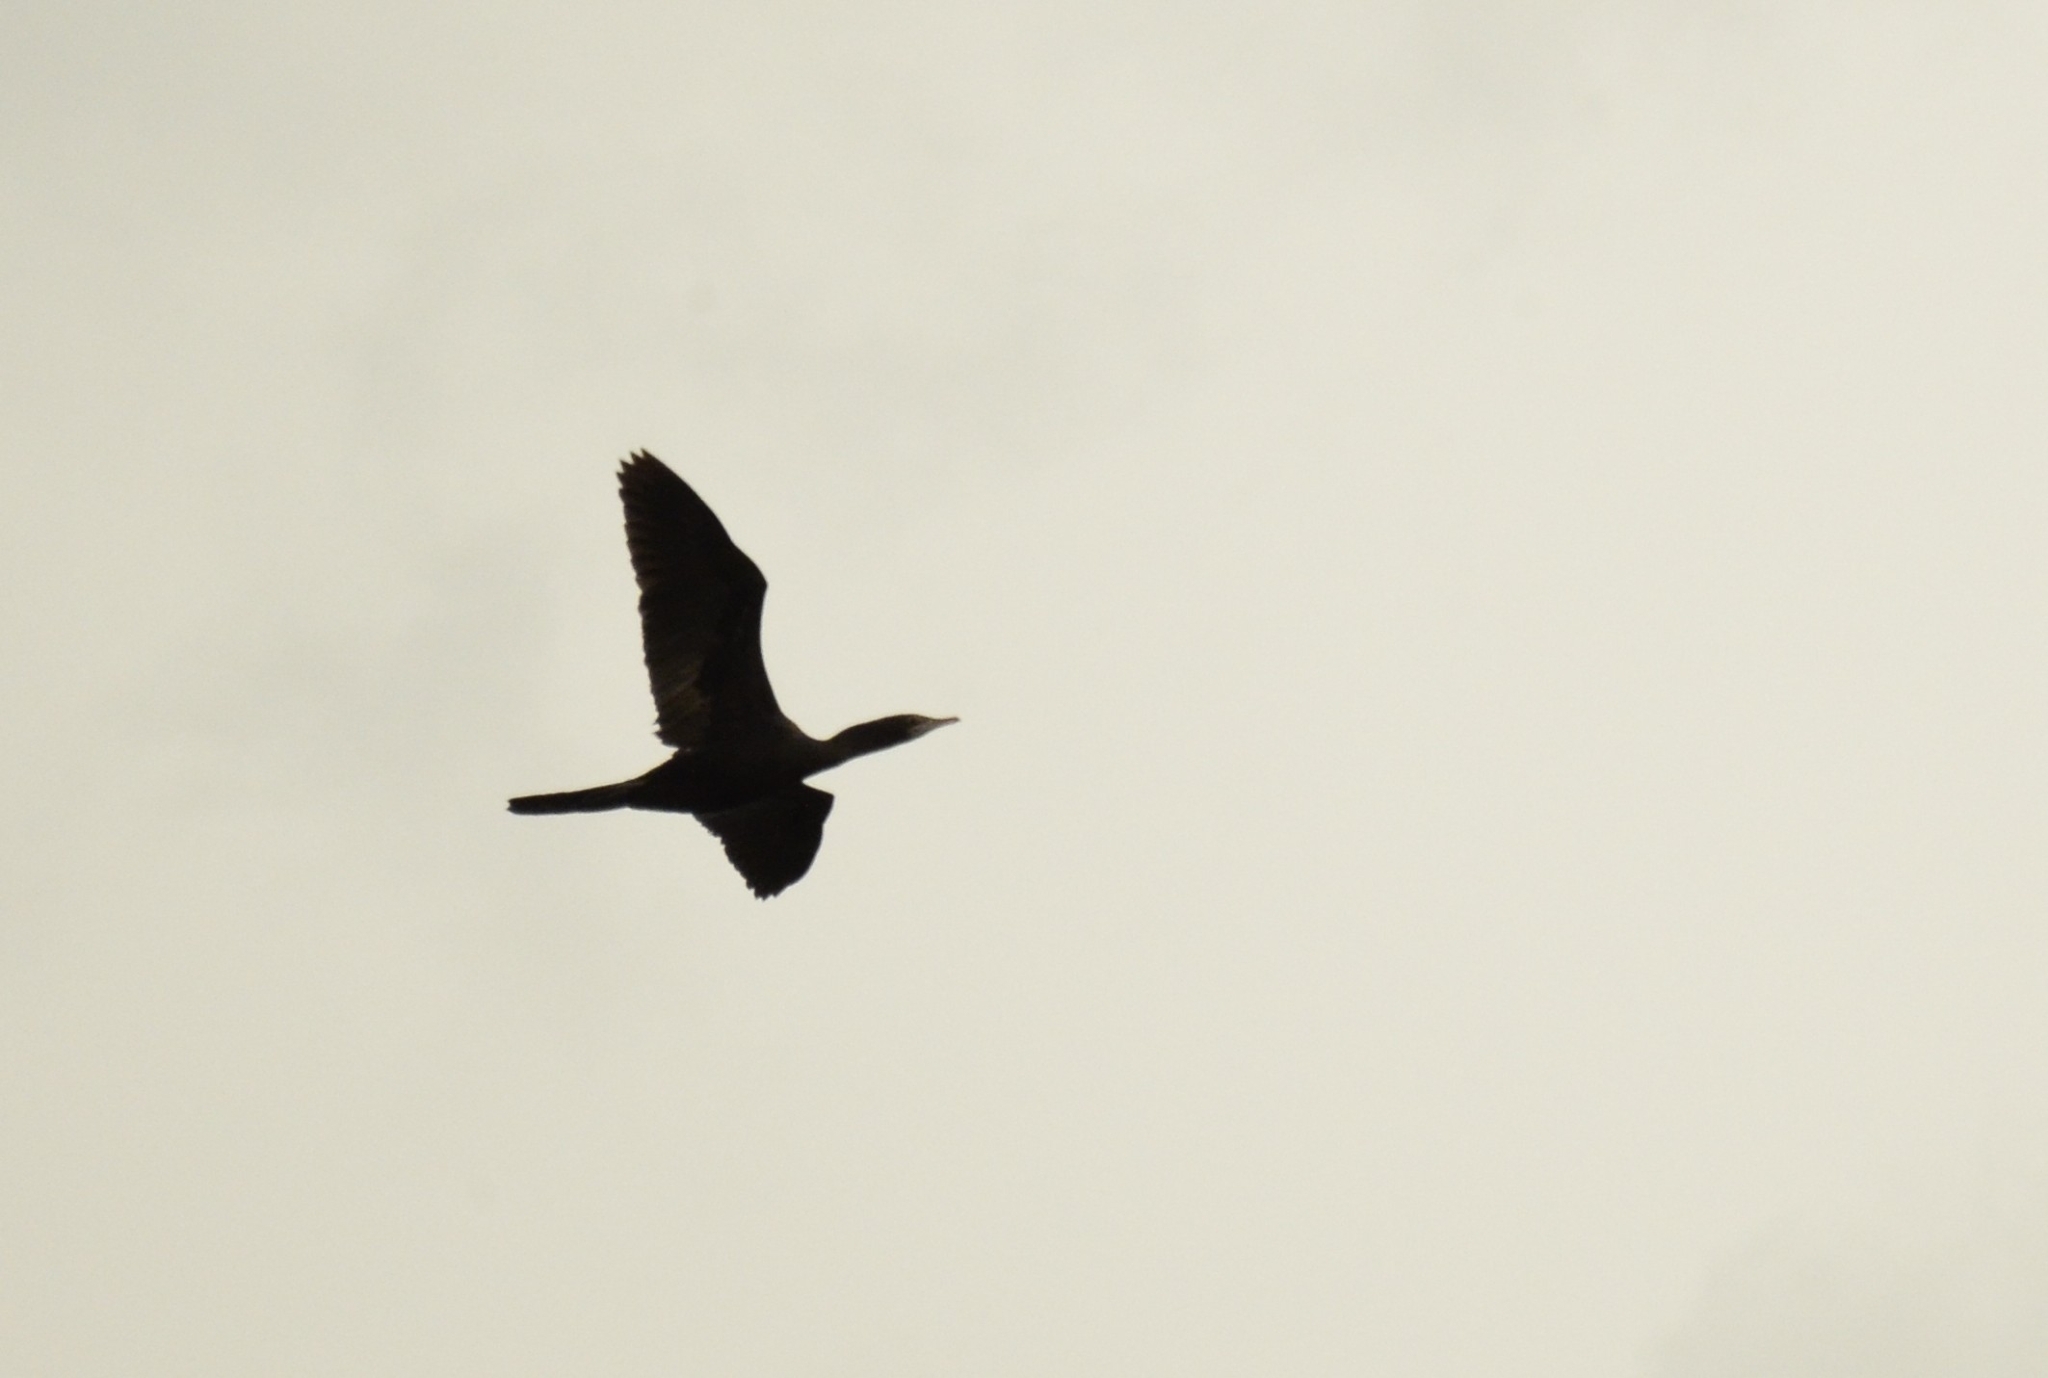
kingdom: Animalia
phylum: Chordata
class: Aves
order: Suliformes
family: Phalacrocoracidae
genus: Microcarbo
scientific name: Microcarbo niger
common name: Little cormorant
